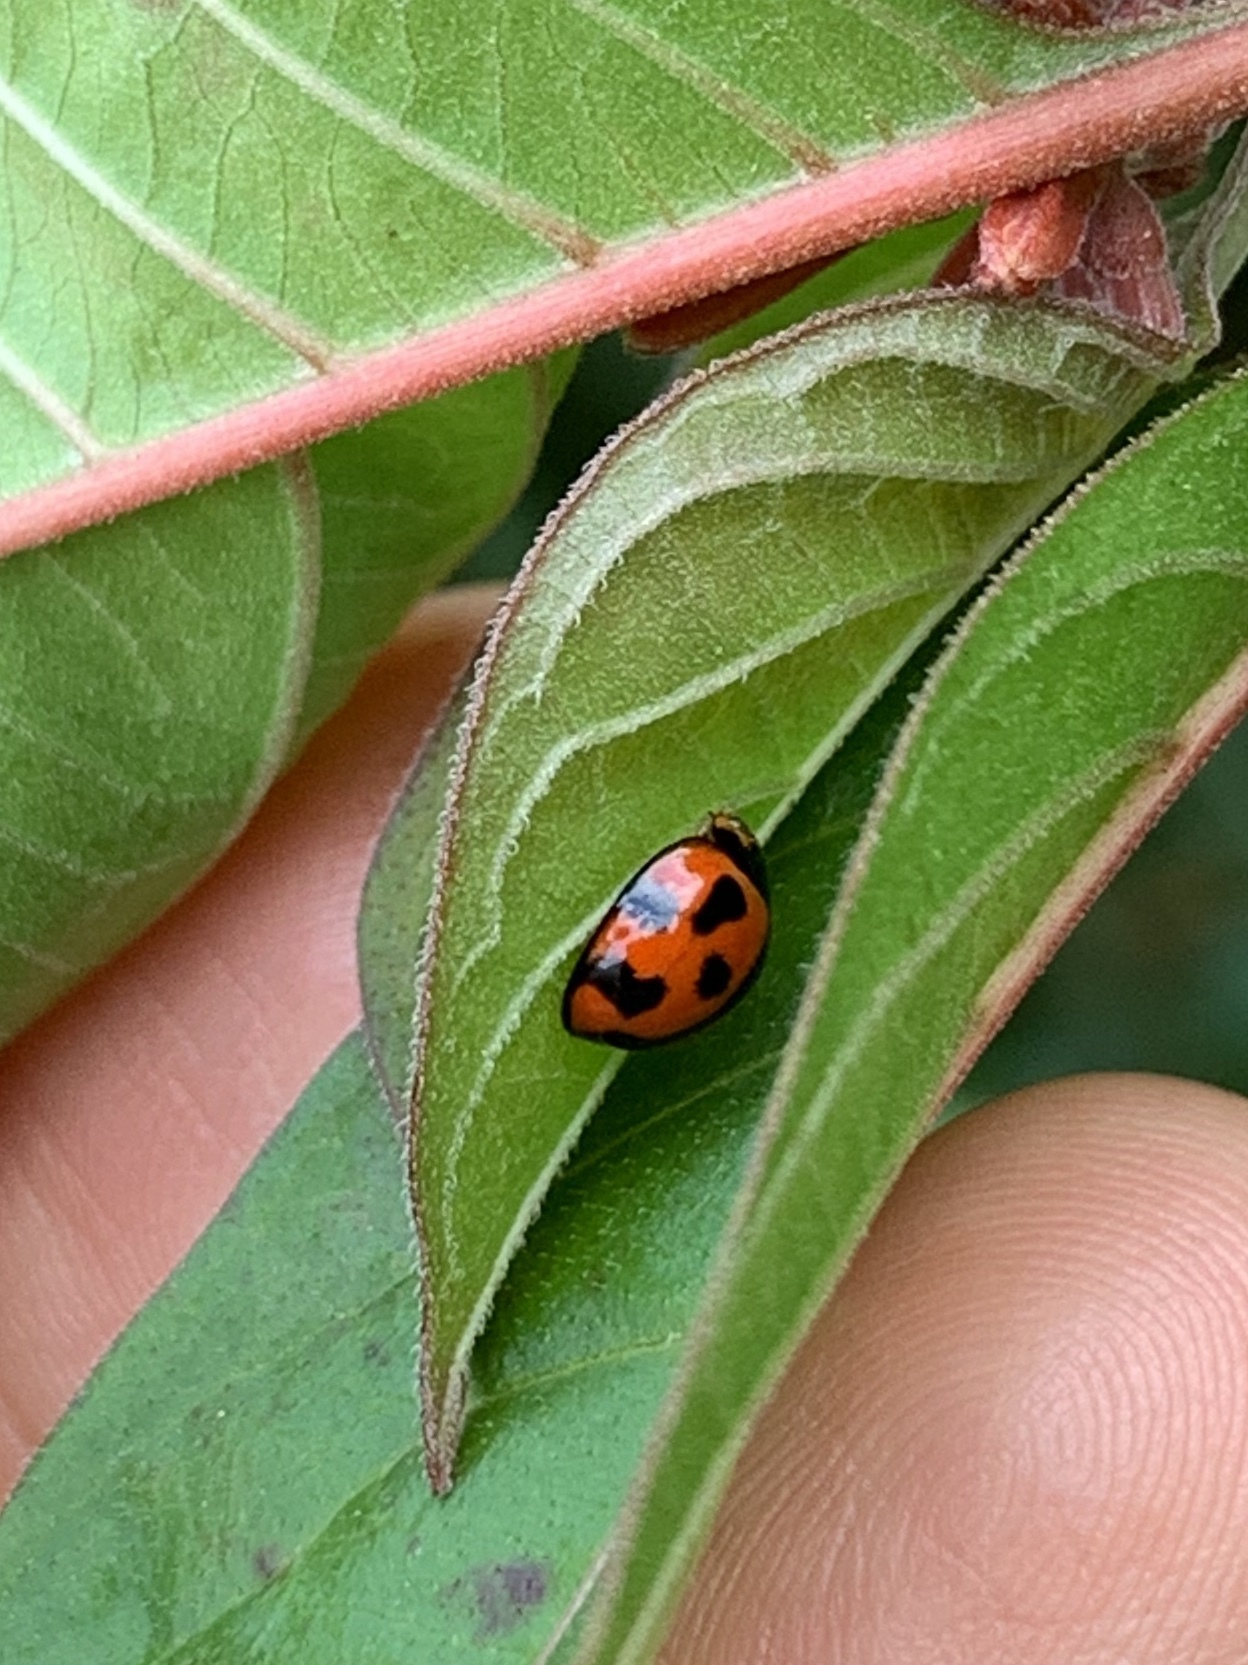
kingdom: Animalia
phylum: Arthropoda
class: Insecta
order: Coleoptera
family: Coccinellidae
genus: Coelophora
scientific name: Coelophora inaequalis
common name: Common australian lady beetle
